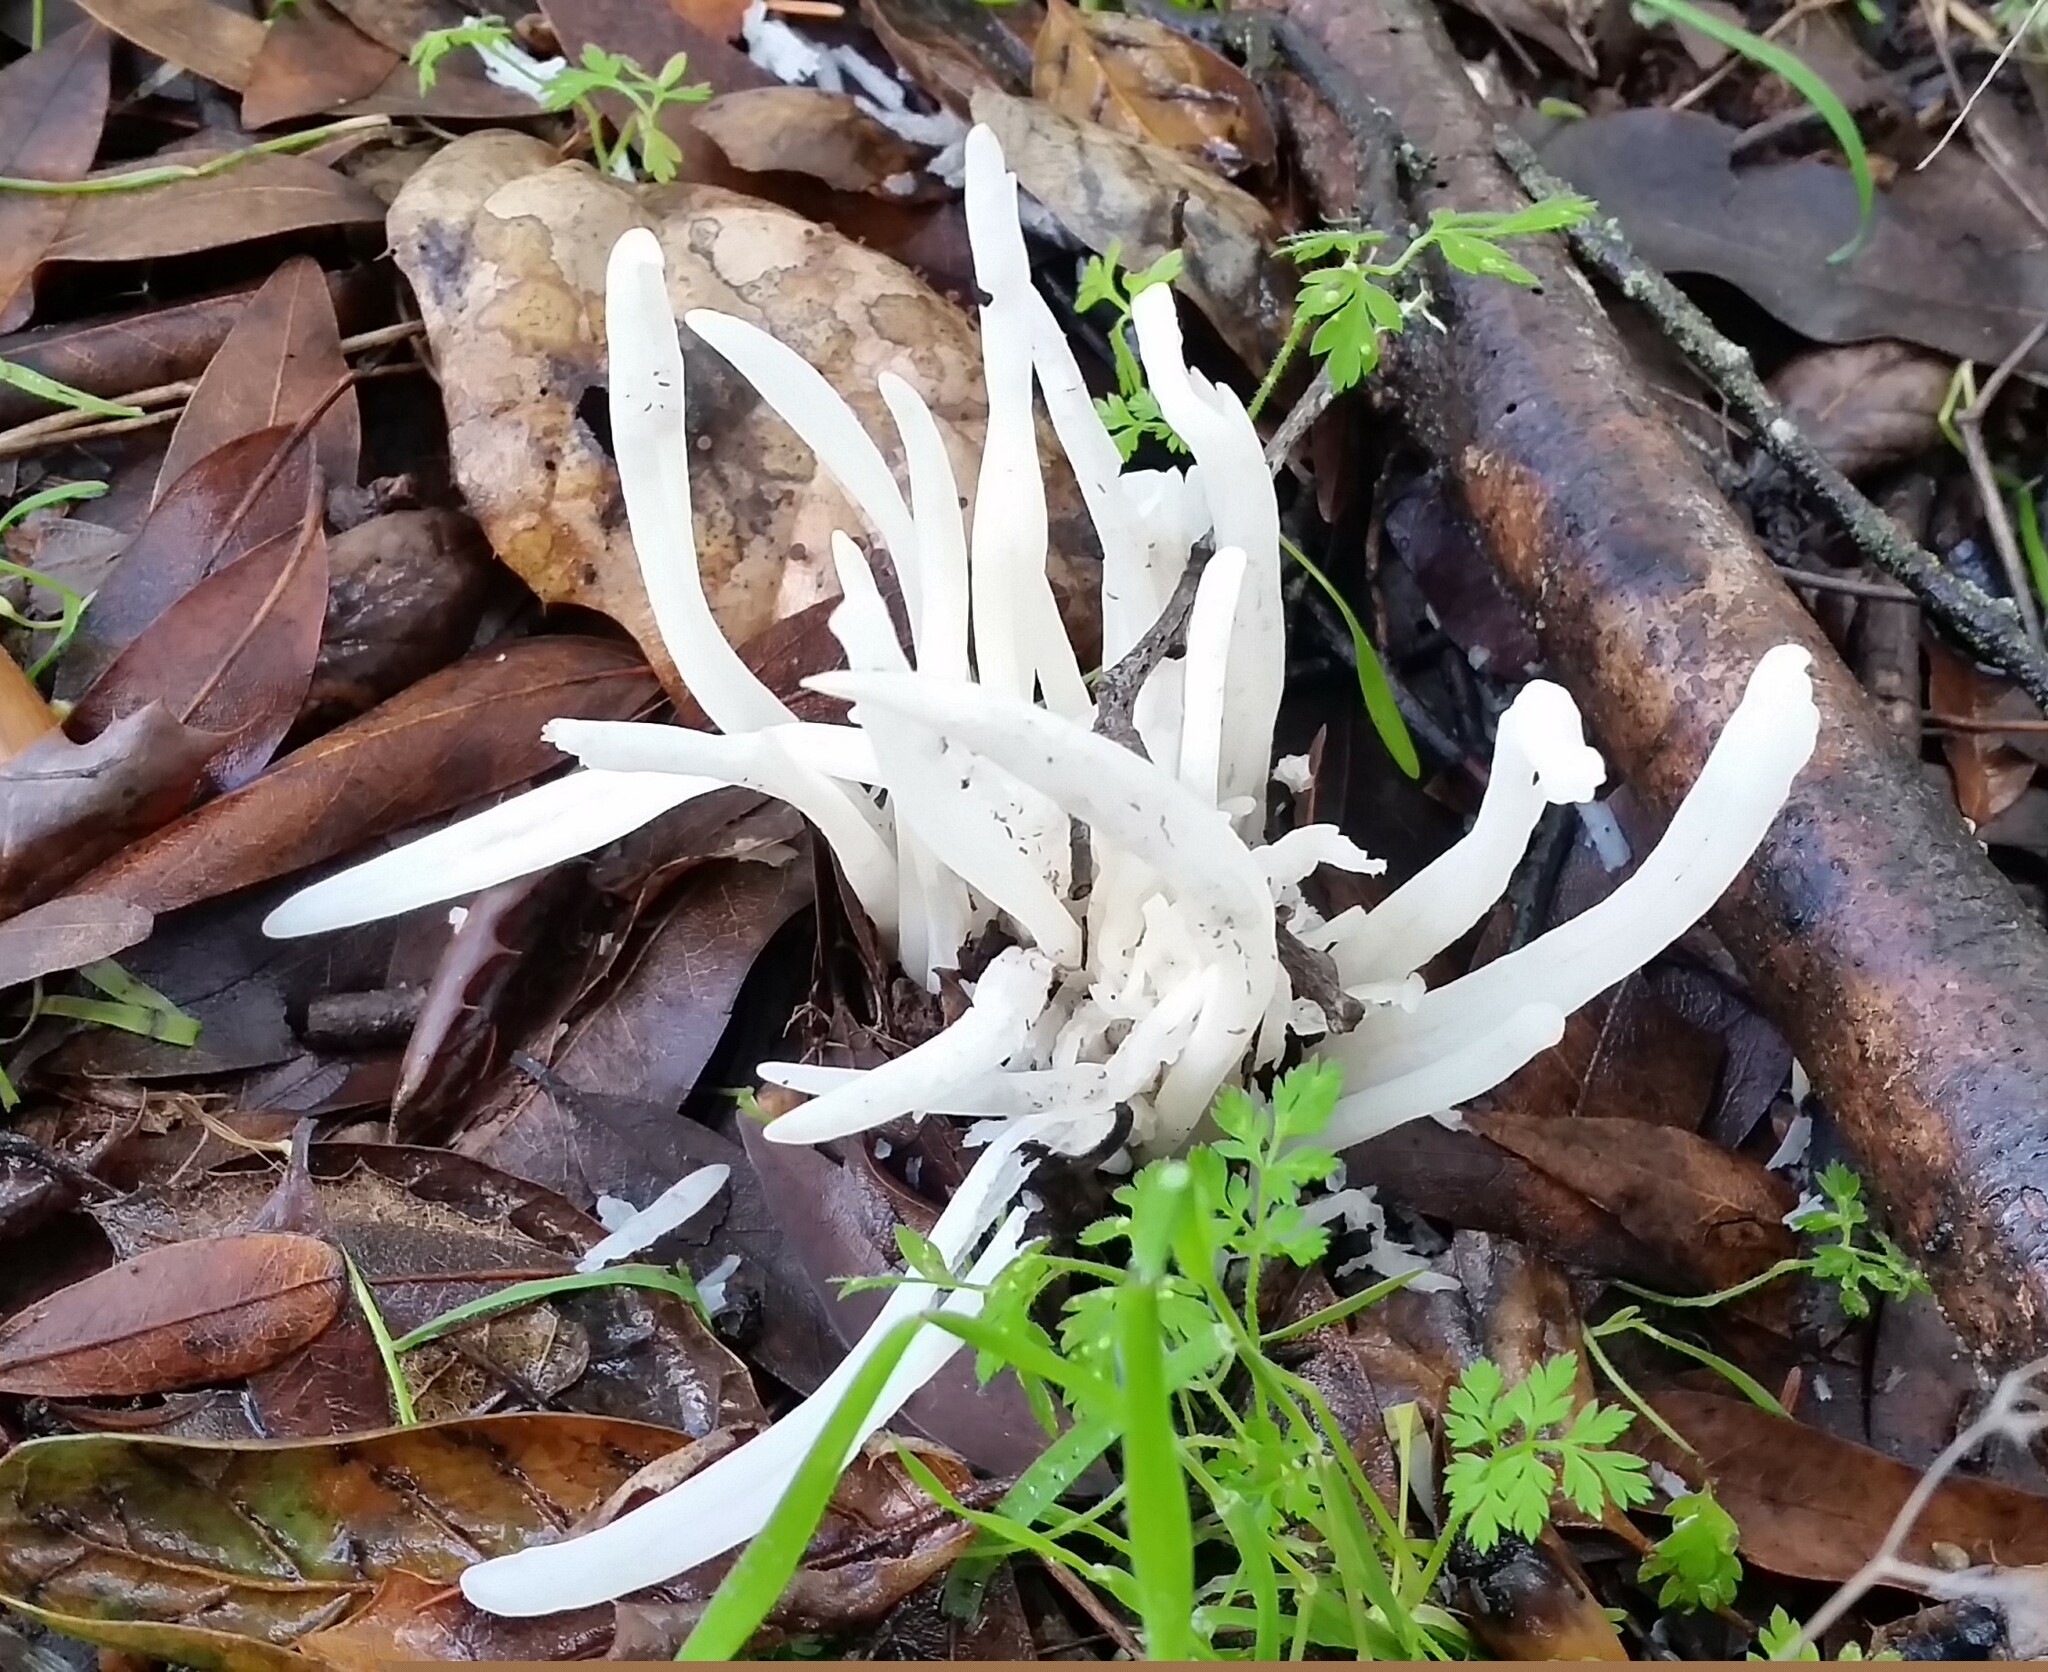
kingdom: Fungi
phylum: Basidiomycota
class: Agaricomycetes
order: Agaricales
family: Clavariaceae
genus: Clavaria
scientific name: Clavaria fragilis
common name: White spindles
